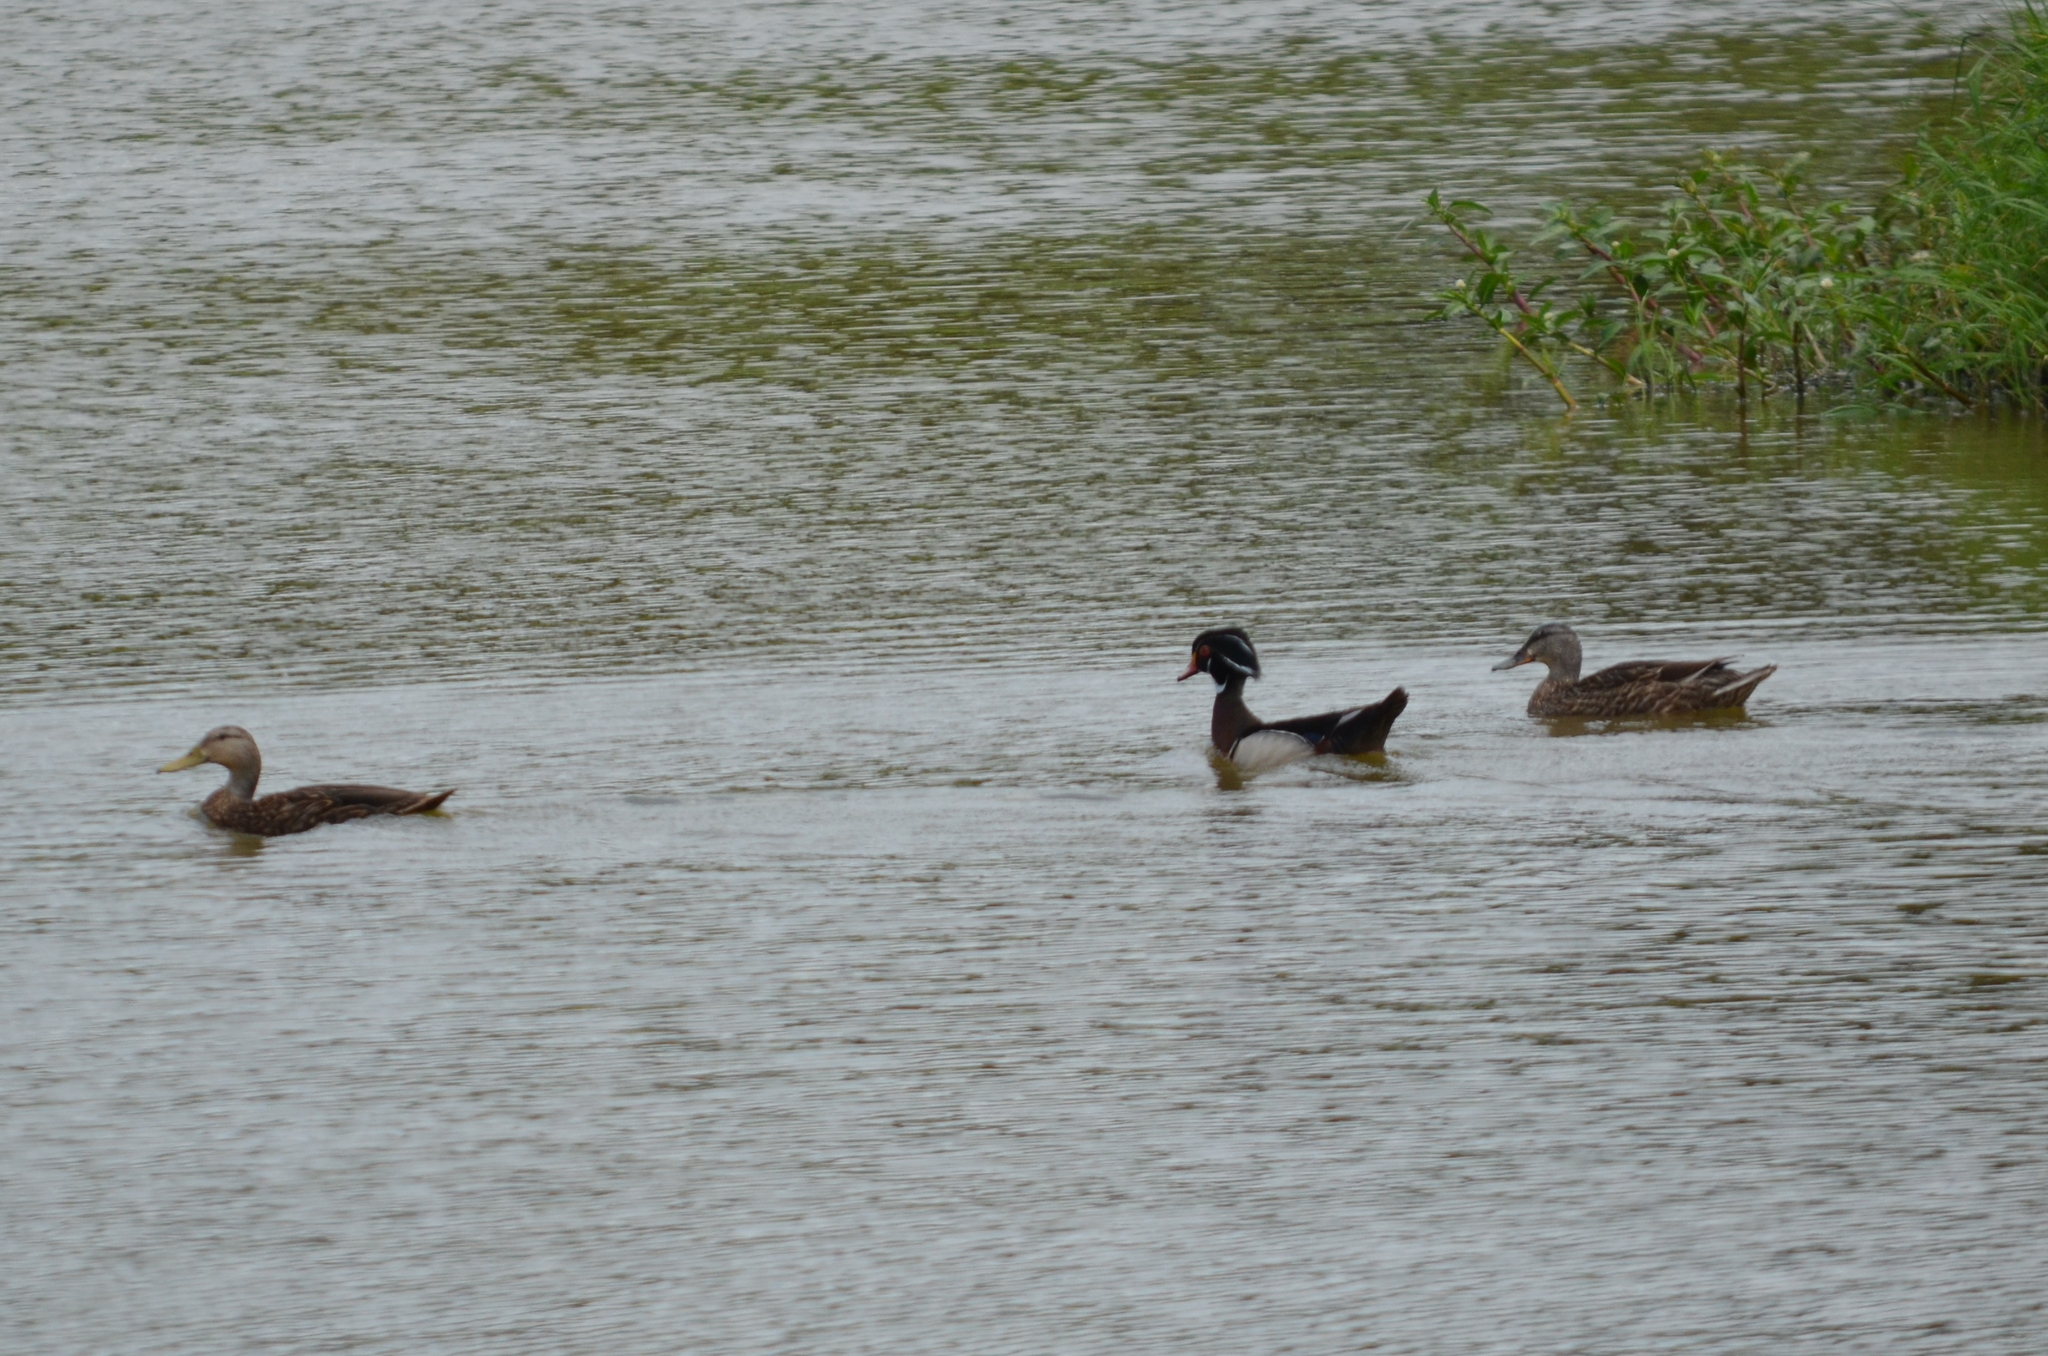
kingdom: Animalia
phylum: Chordata
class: Aves
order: Anseriformes
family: Anatidae
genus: Anas
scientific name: Anas fulvigula
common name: Mottled duck
